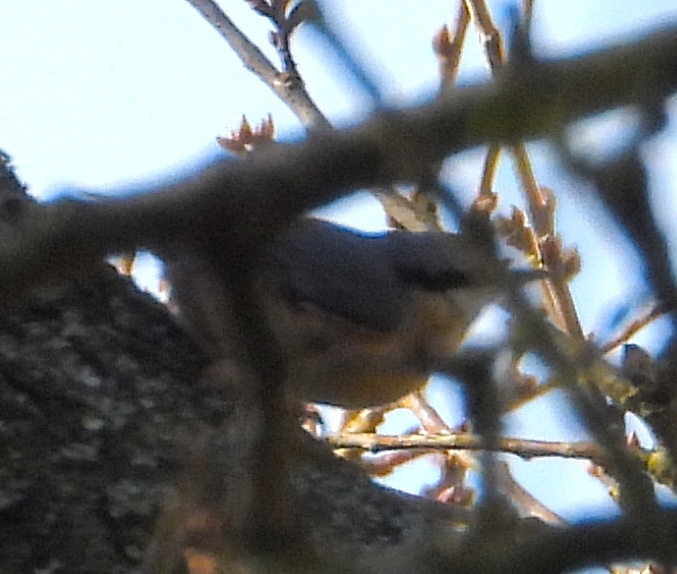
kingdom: Animalia
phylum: Chordata
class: Aves
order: Passeriformes
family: Sittidae
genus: Sitta
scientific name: Sitta europaea
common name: Eurasian nuthatch
